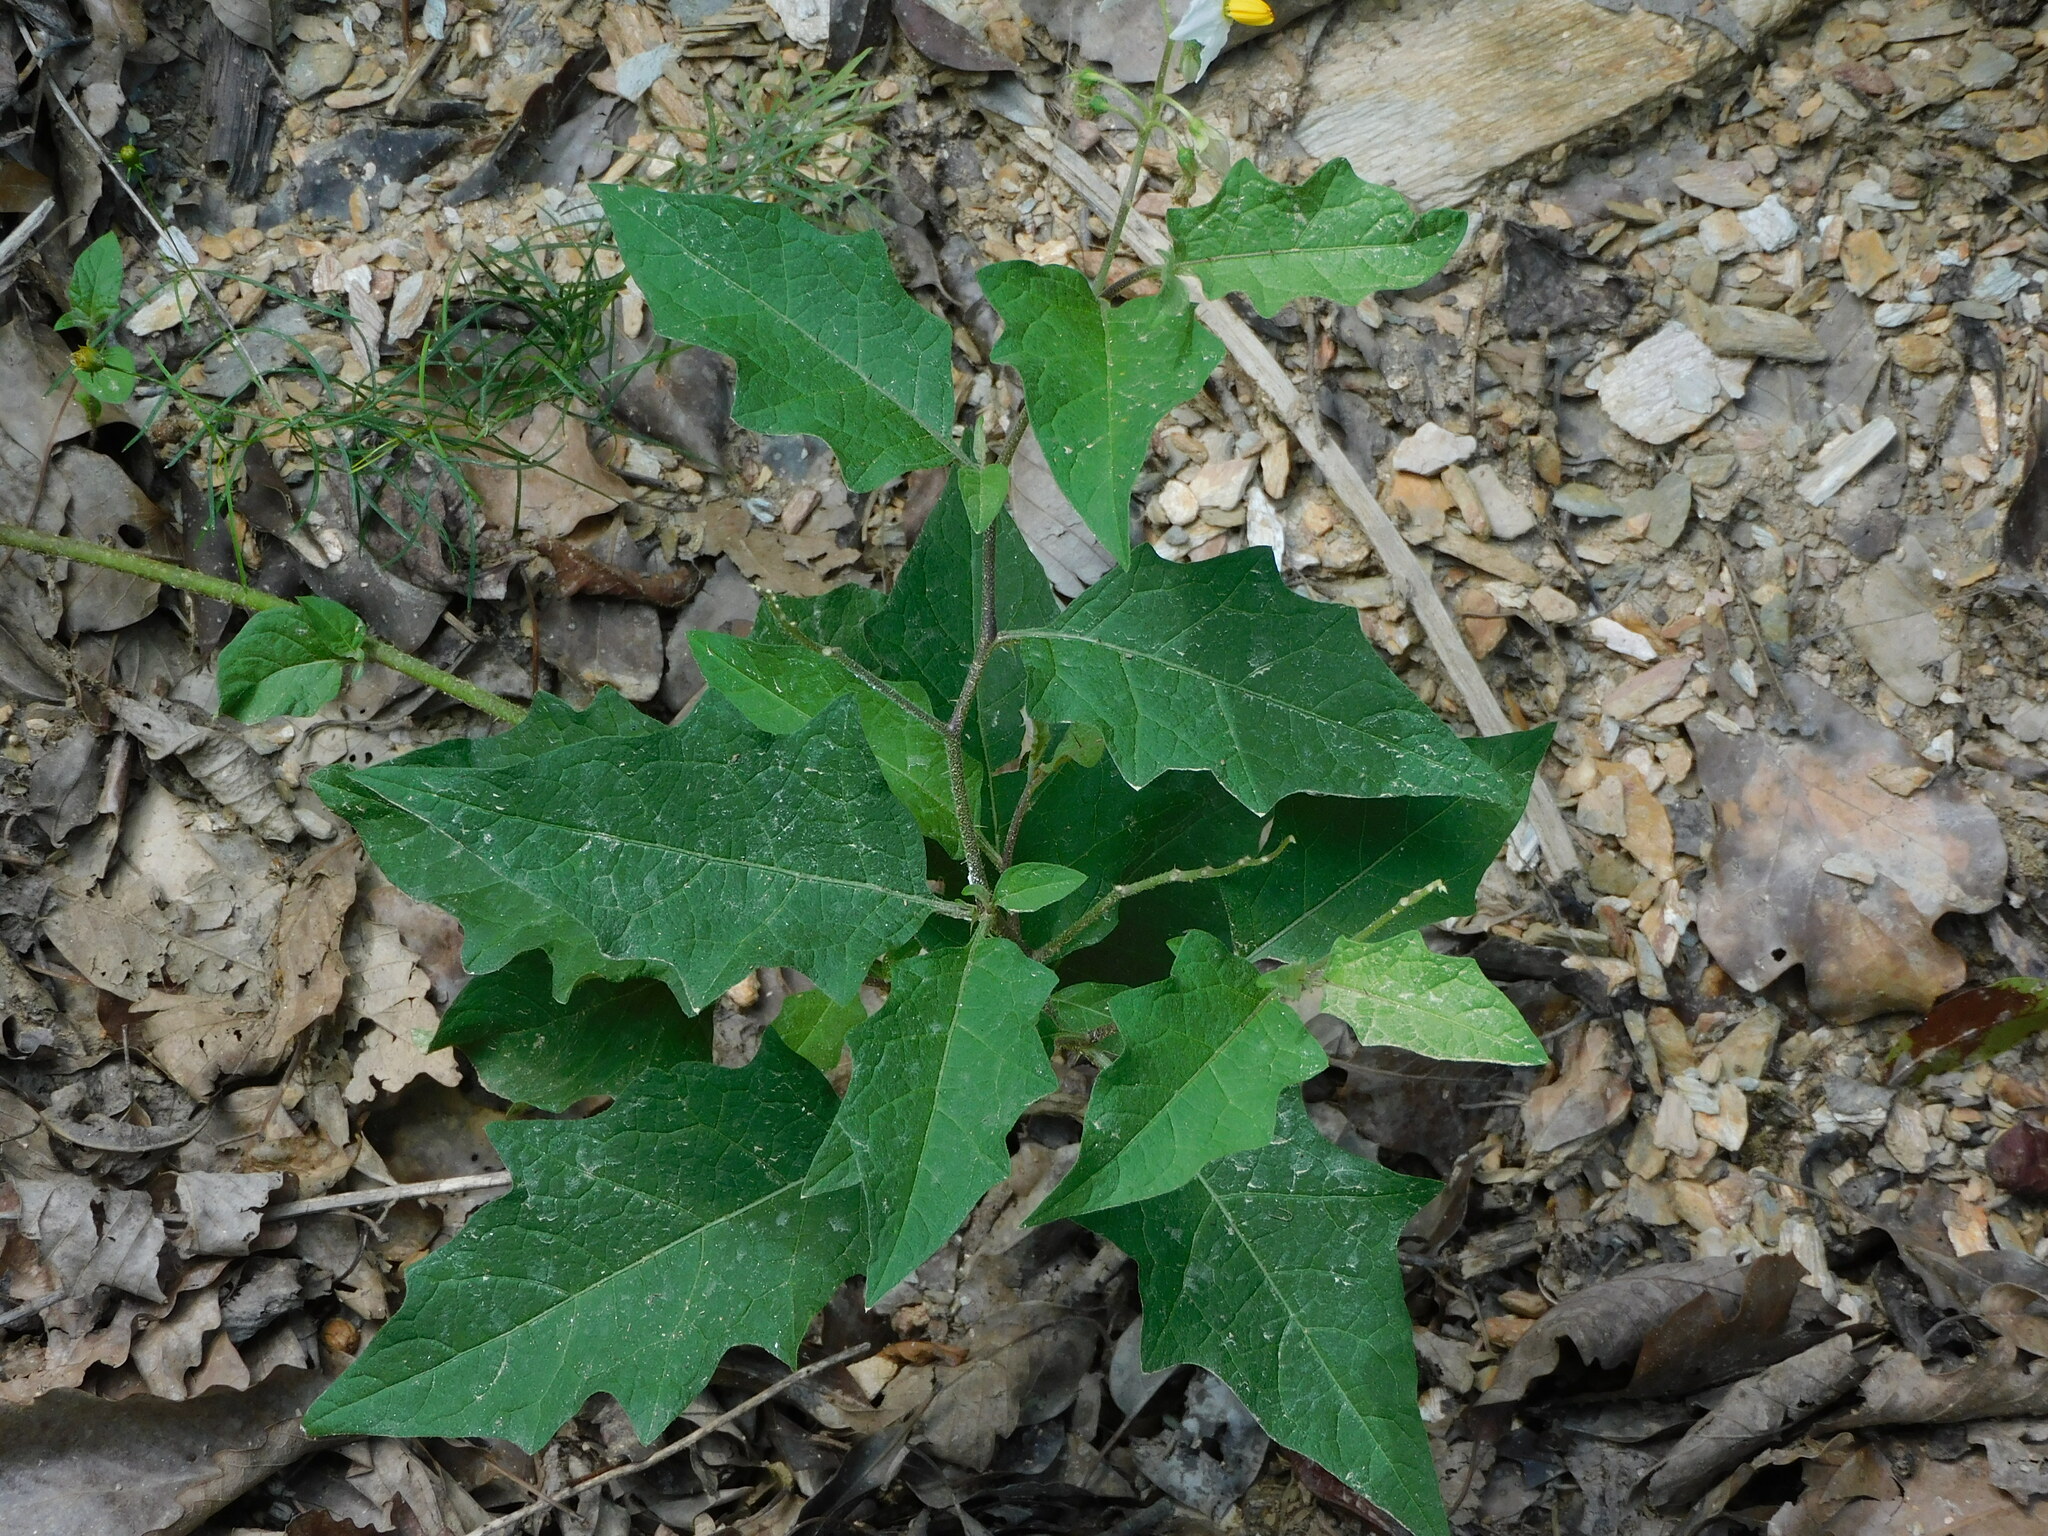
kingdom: Plantae
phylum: Tracheophyta
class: Magnoliopsida
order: Solanales
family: Solanaceae
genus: Solanum
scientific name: Solanum carolinense
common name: Horse-nettle
